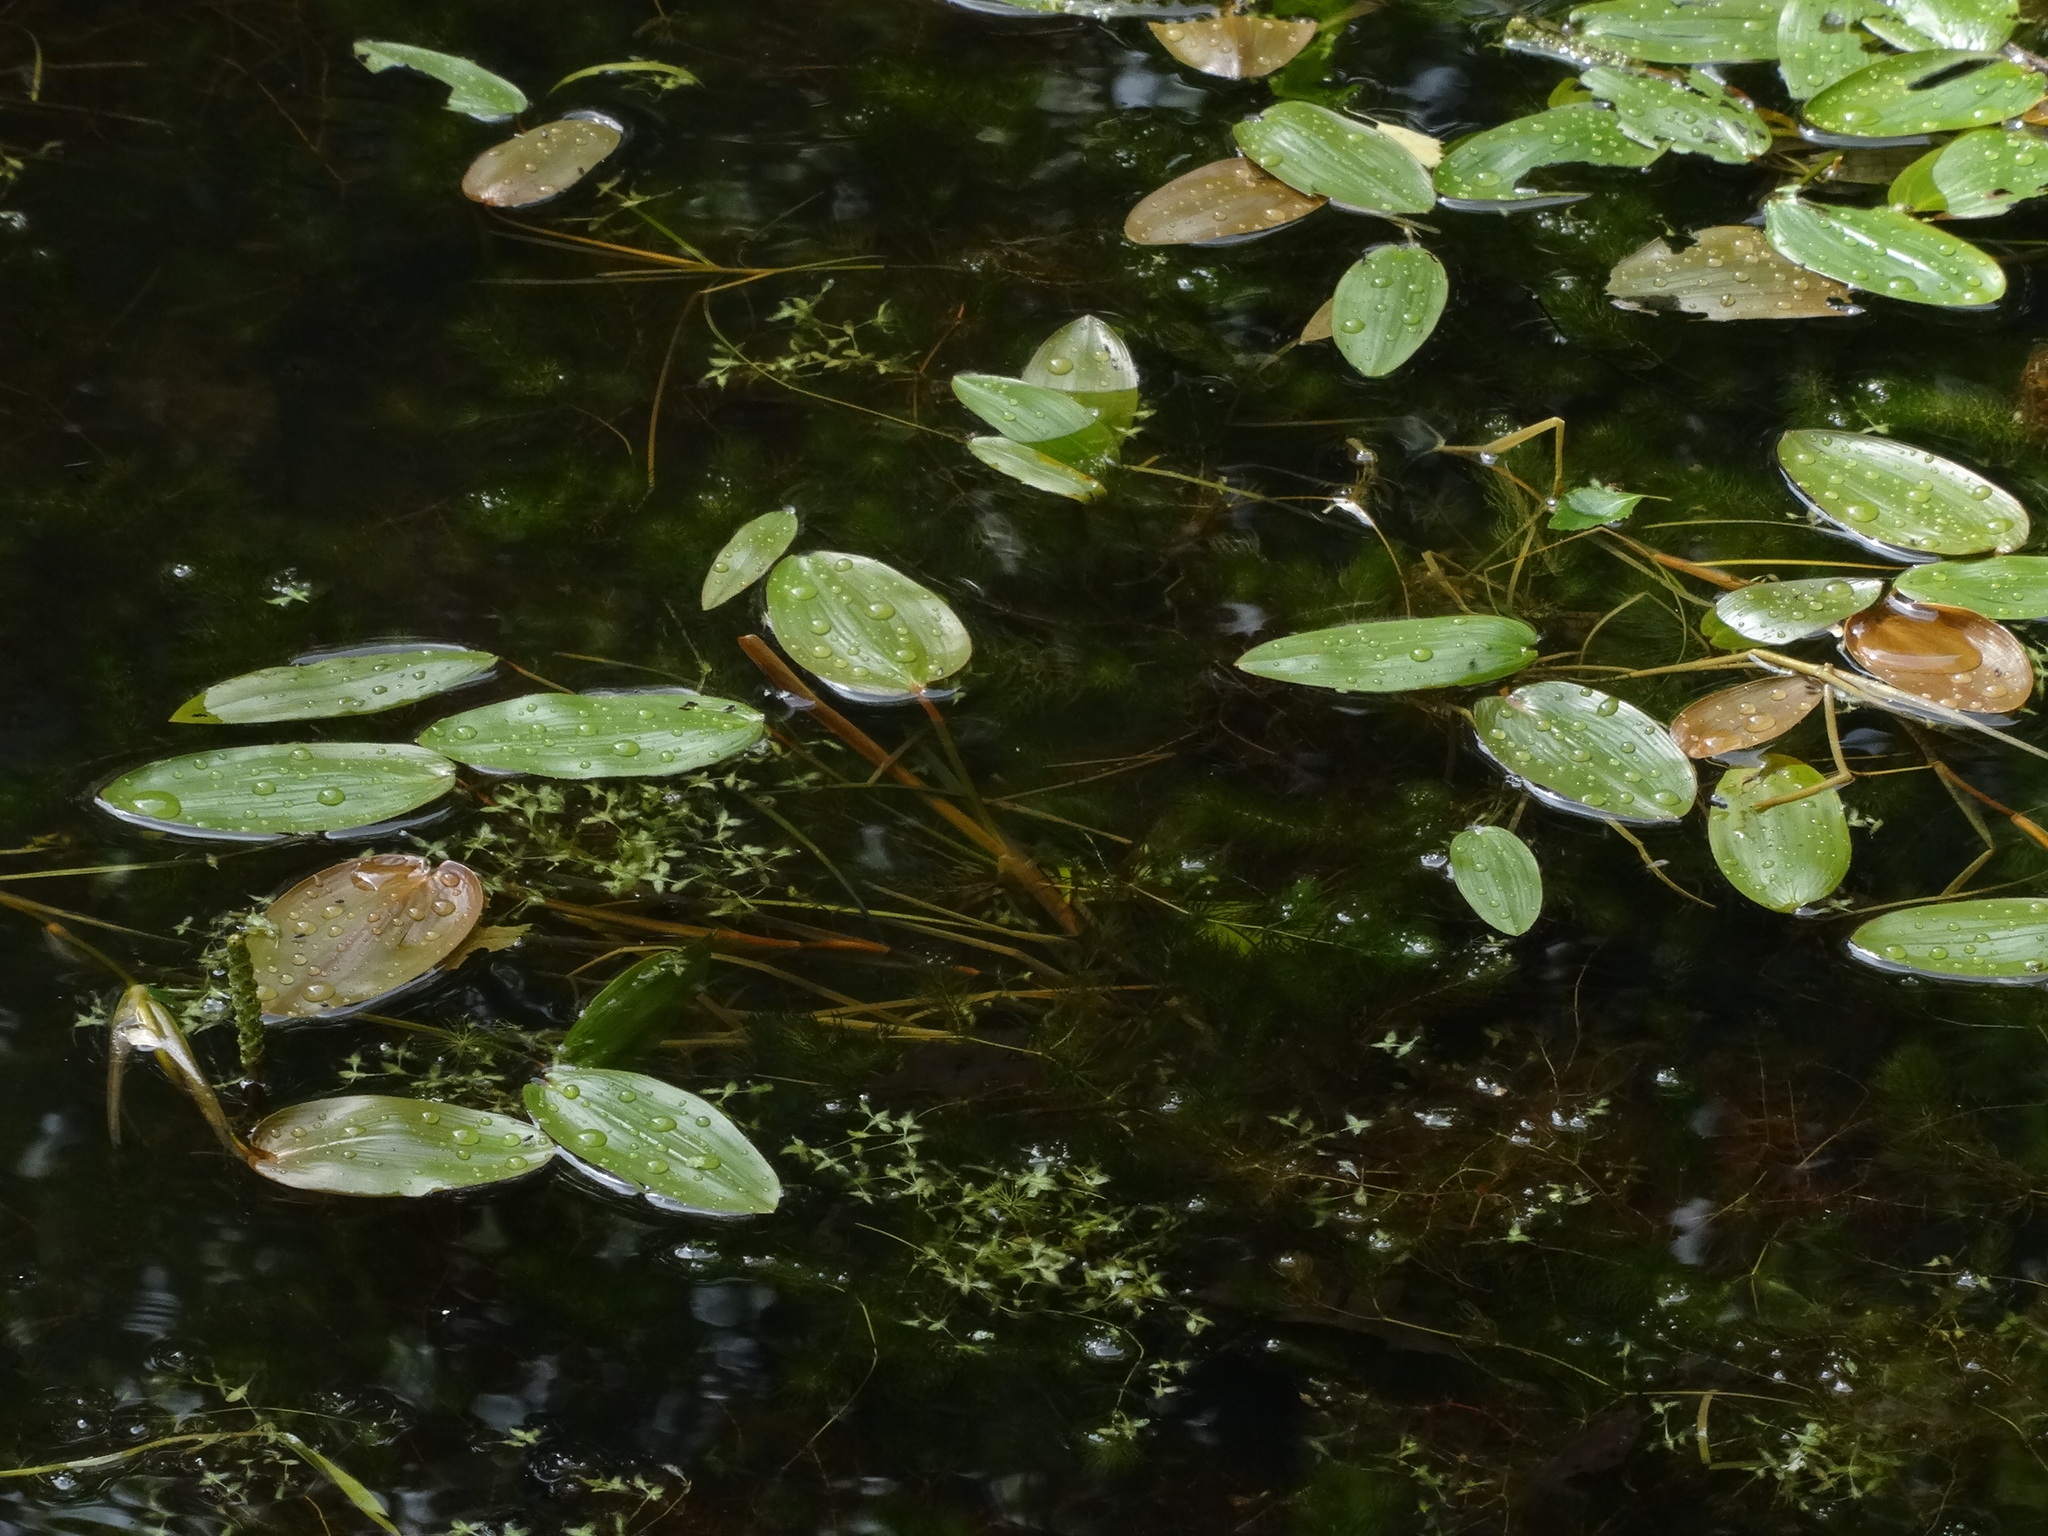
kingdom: Plantae
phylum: Tracheophyta
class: Liliopsida
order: Alismatales
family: Potamogetonaceae
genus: Potamogeton
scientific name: Potamogeton natans
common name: Broad-leaved pondweed
